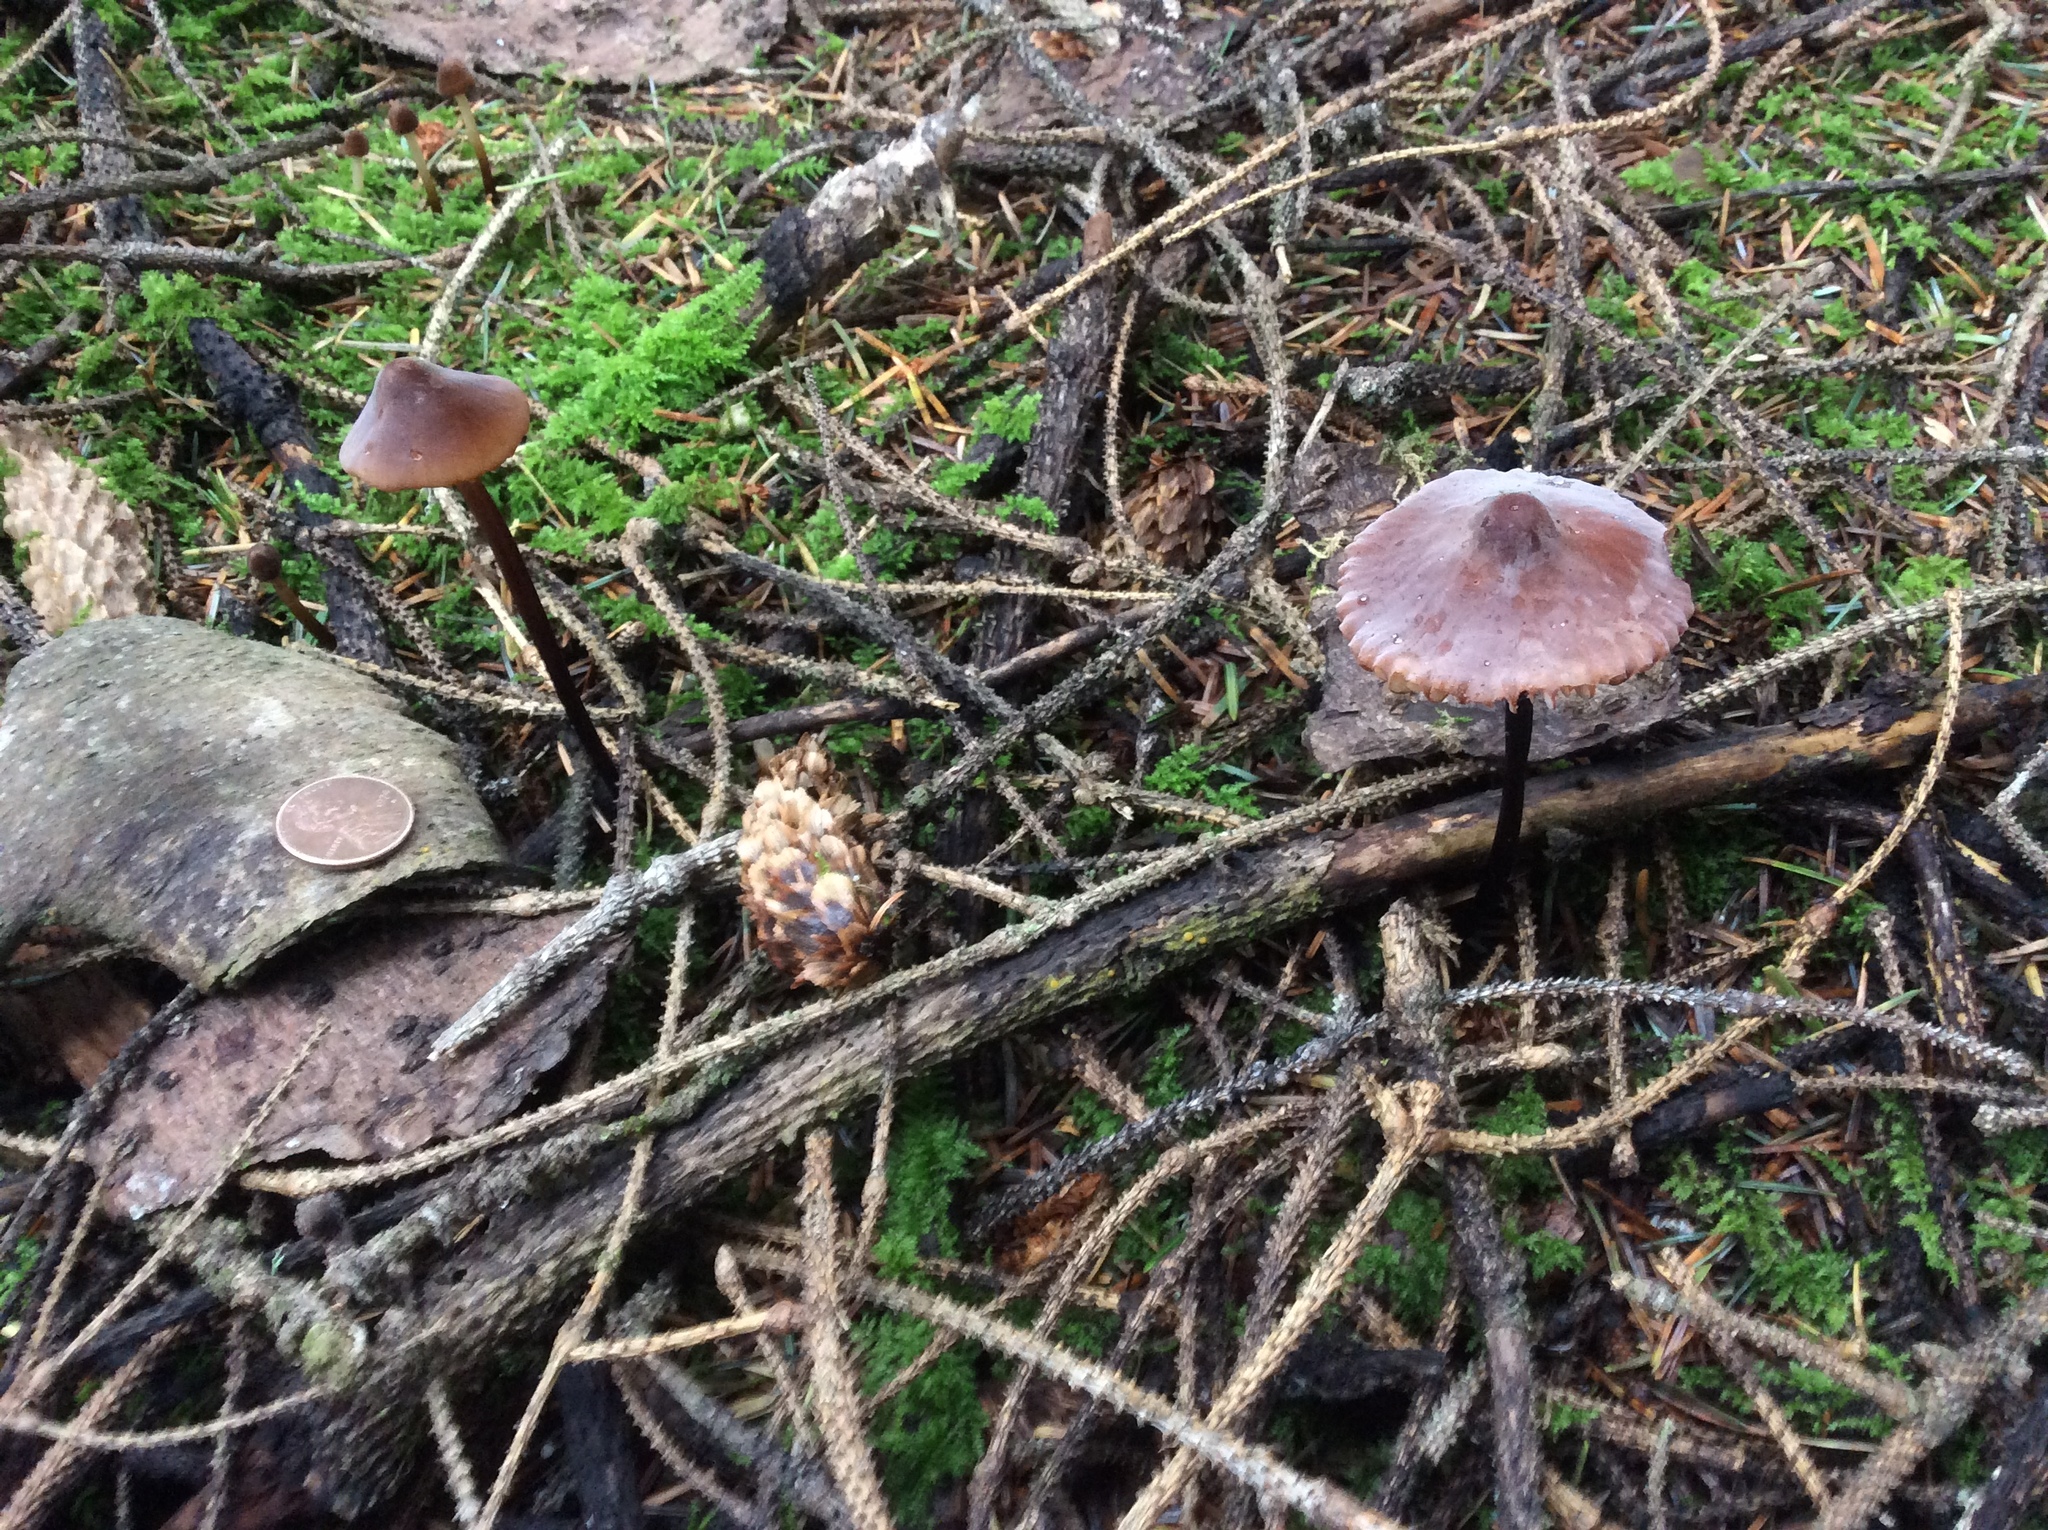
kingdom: Fungi
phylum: Basidiomycota
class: Agaricomycetes
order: Agaricales
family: Marasmiaceae
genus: Marasmius
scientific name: Marasmius plicatulus
